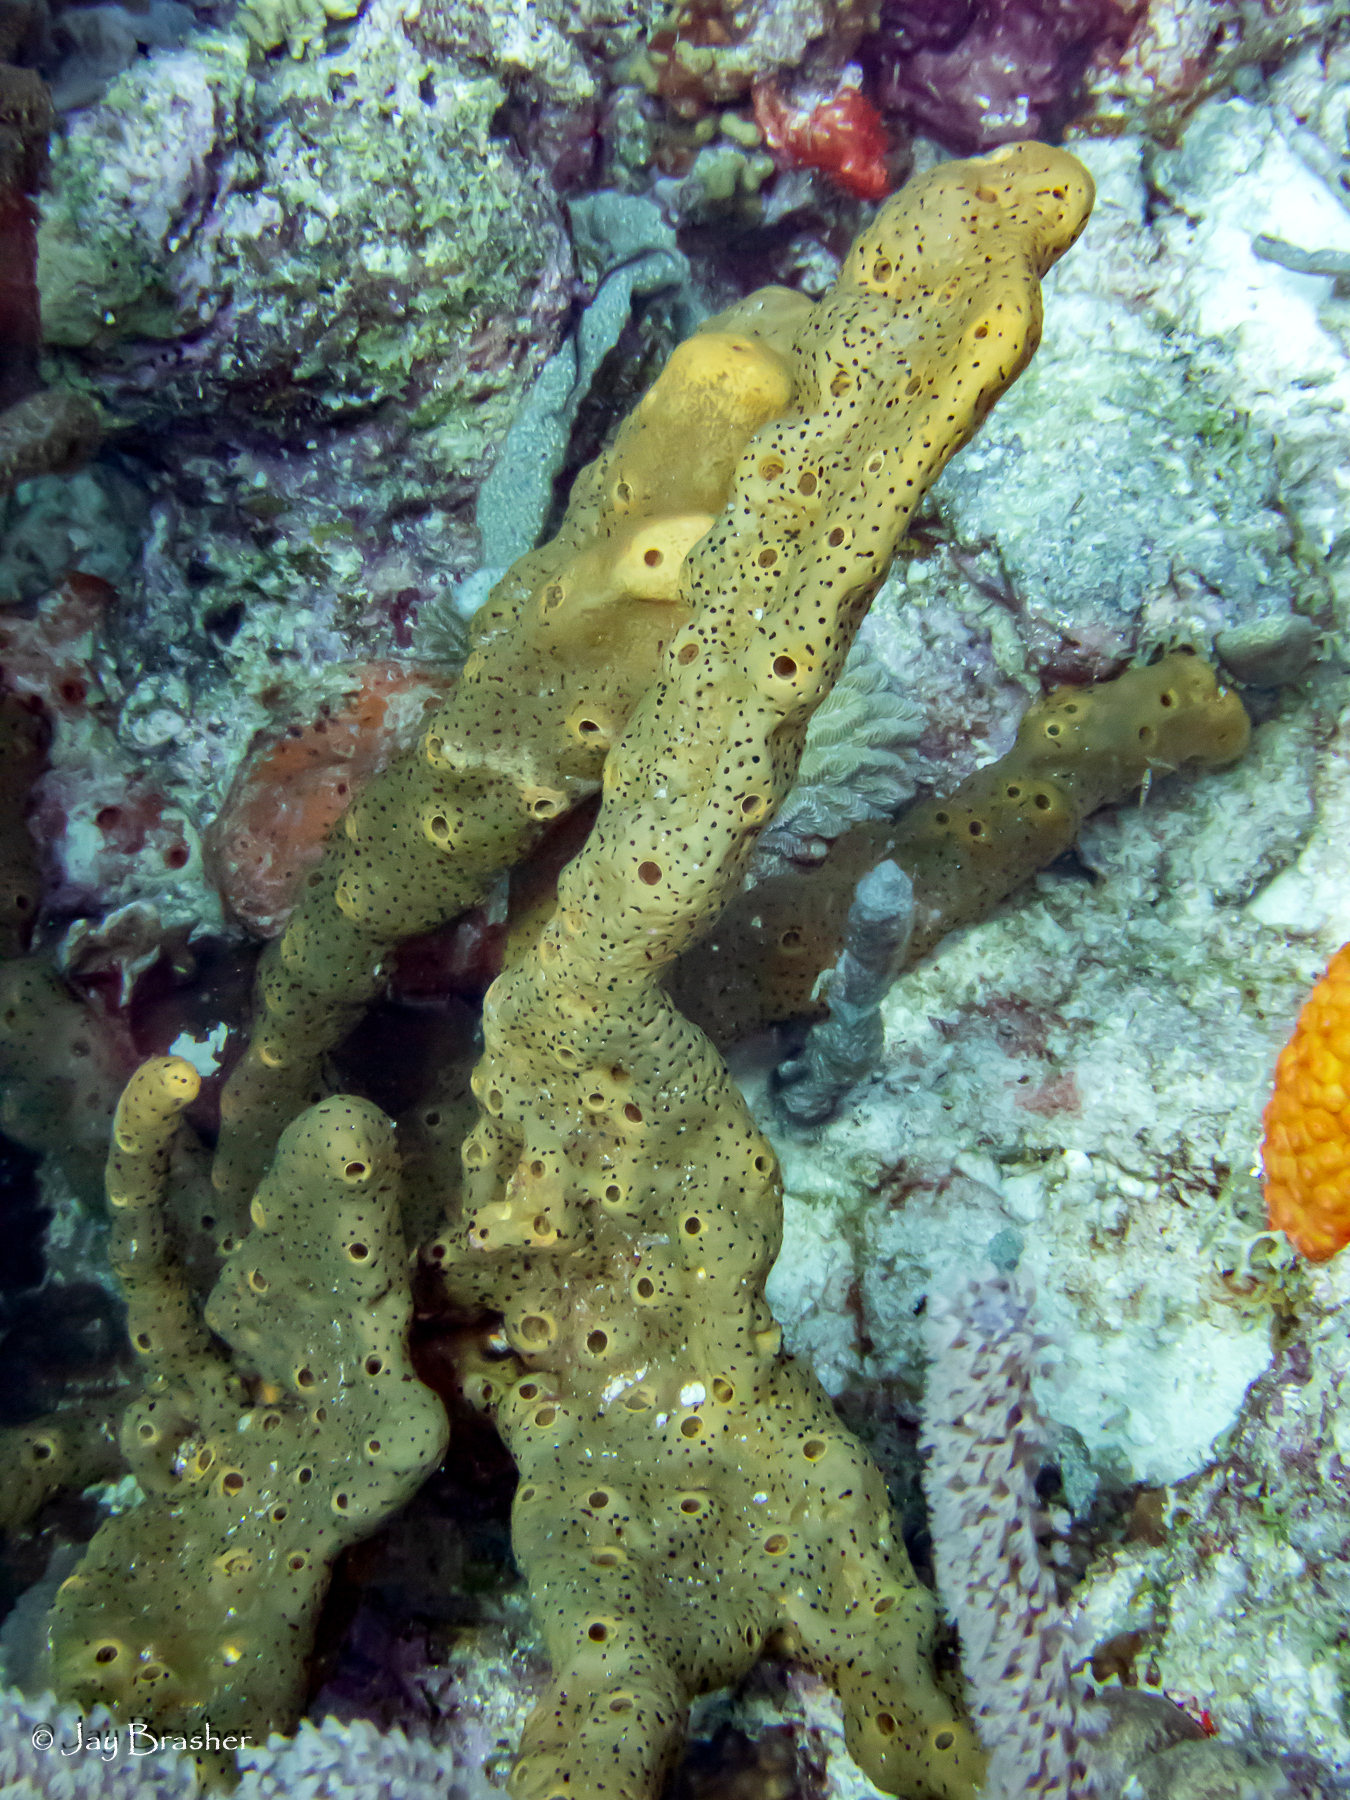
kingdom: Animalia
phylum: Porifera
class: Demospongiae
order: Agelasida
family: Agelasidae
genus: Agelas
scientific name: Agelas conifera
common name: Brown tube sponge
